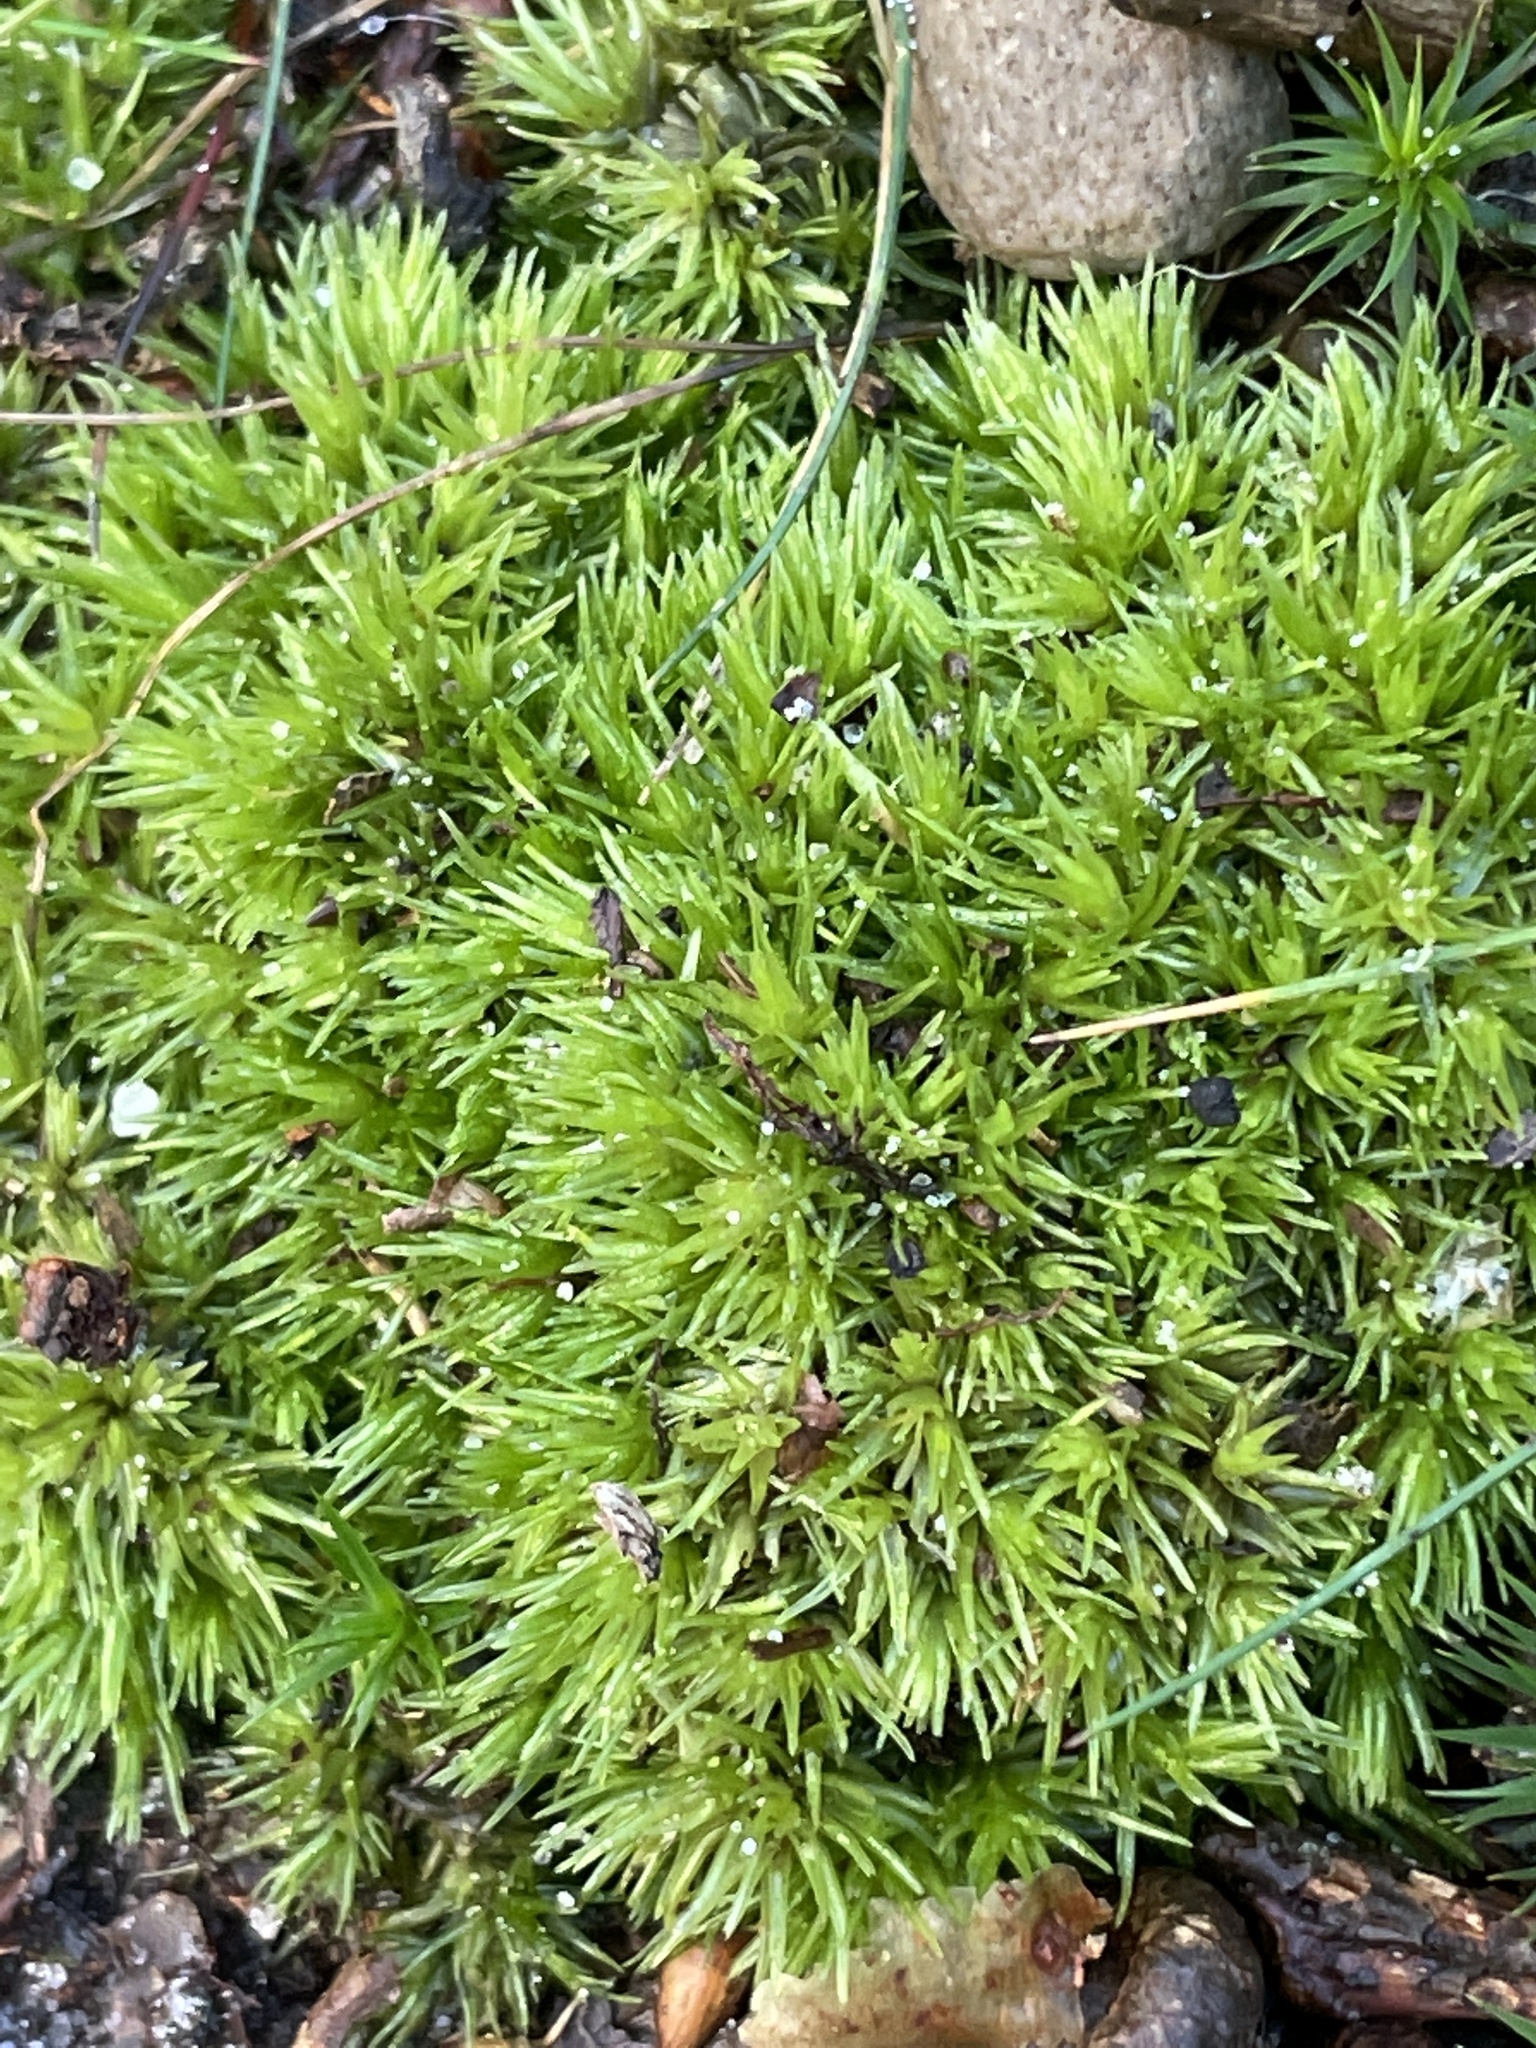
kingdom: Plantae
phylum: Bryophyta
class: Bryopsida
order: Dicranales
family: Leucobryaceae
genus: Leucobryum
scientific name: Leucobryum glaucum
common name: Large white-moss
